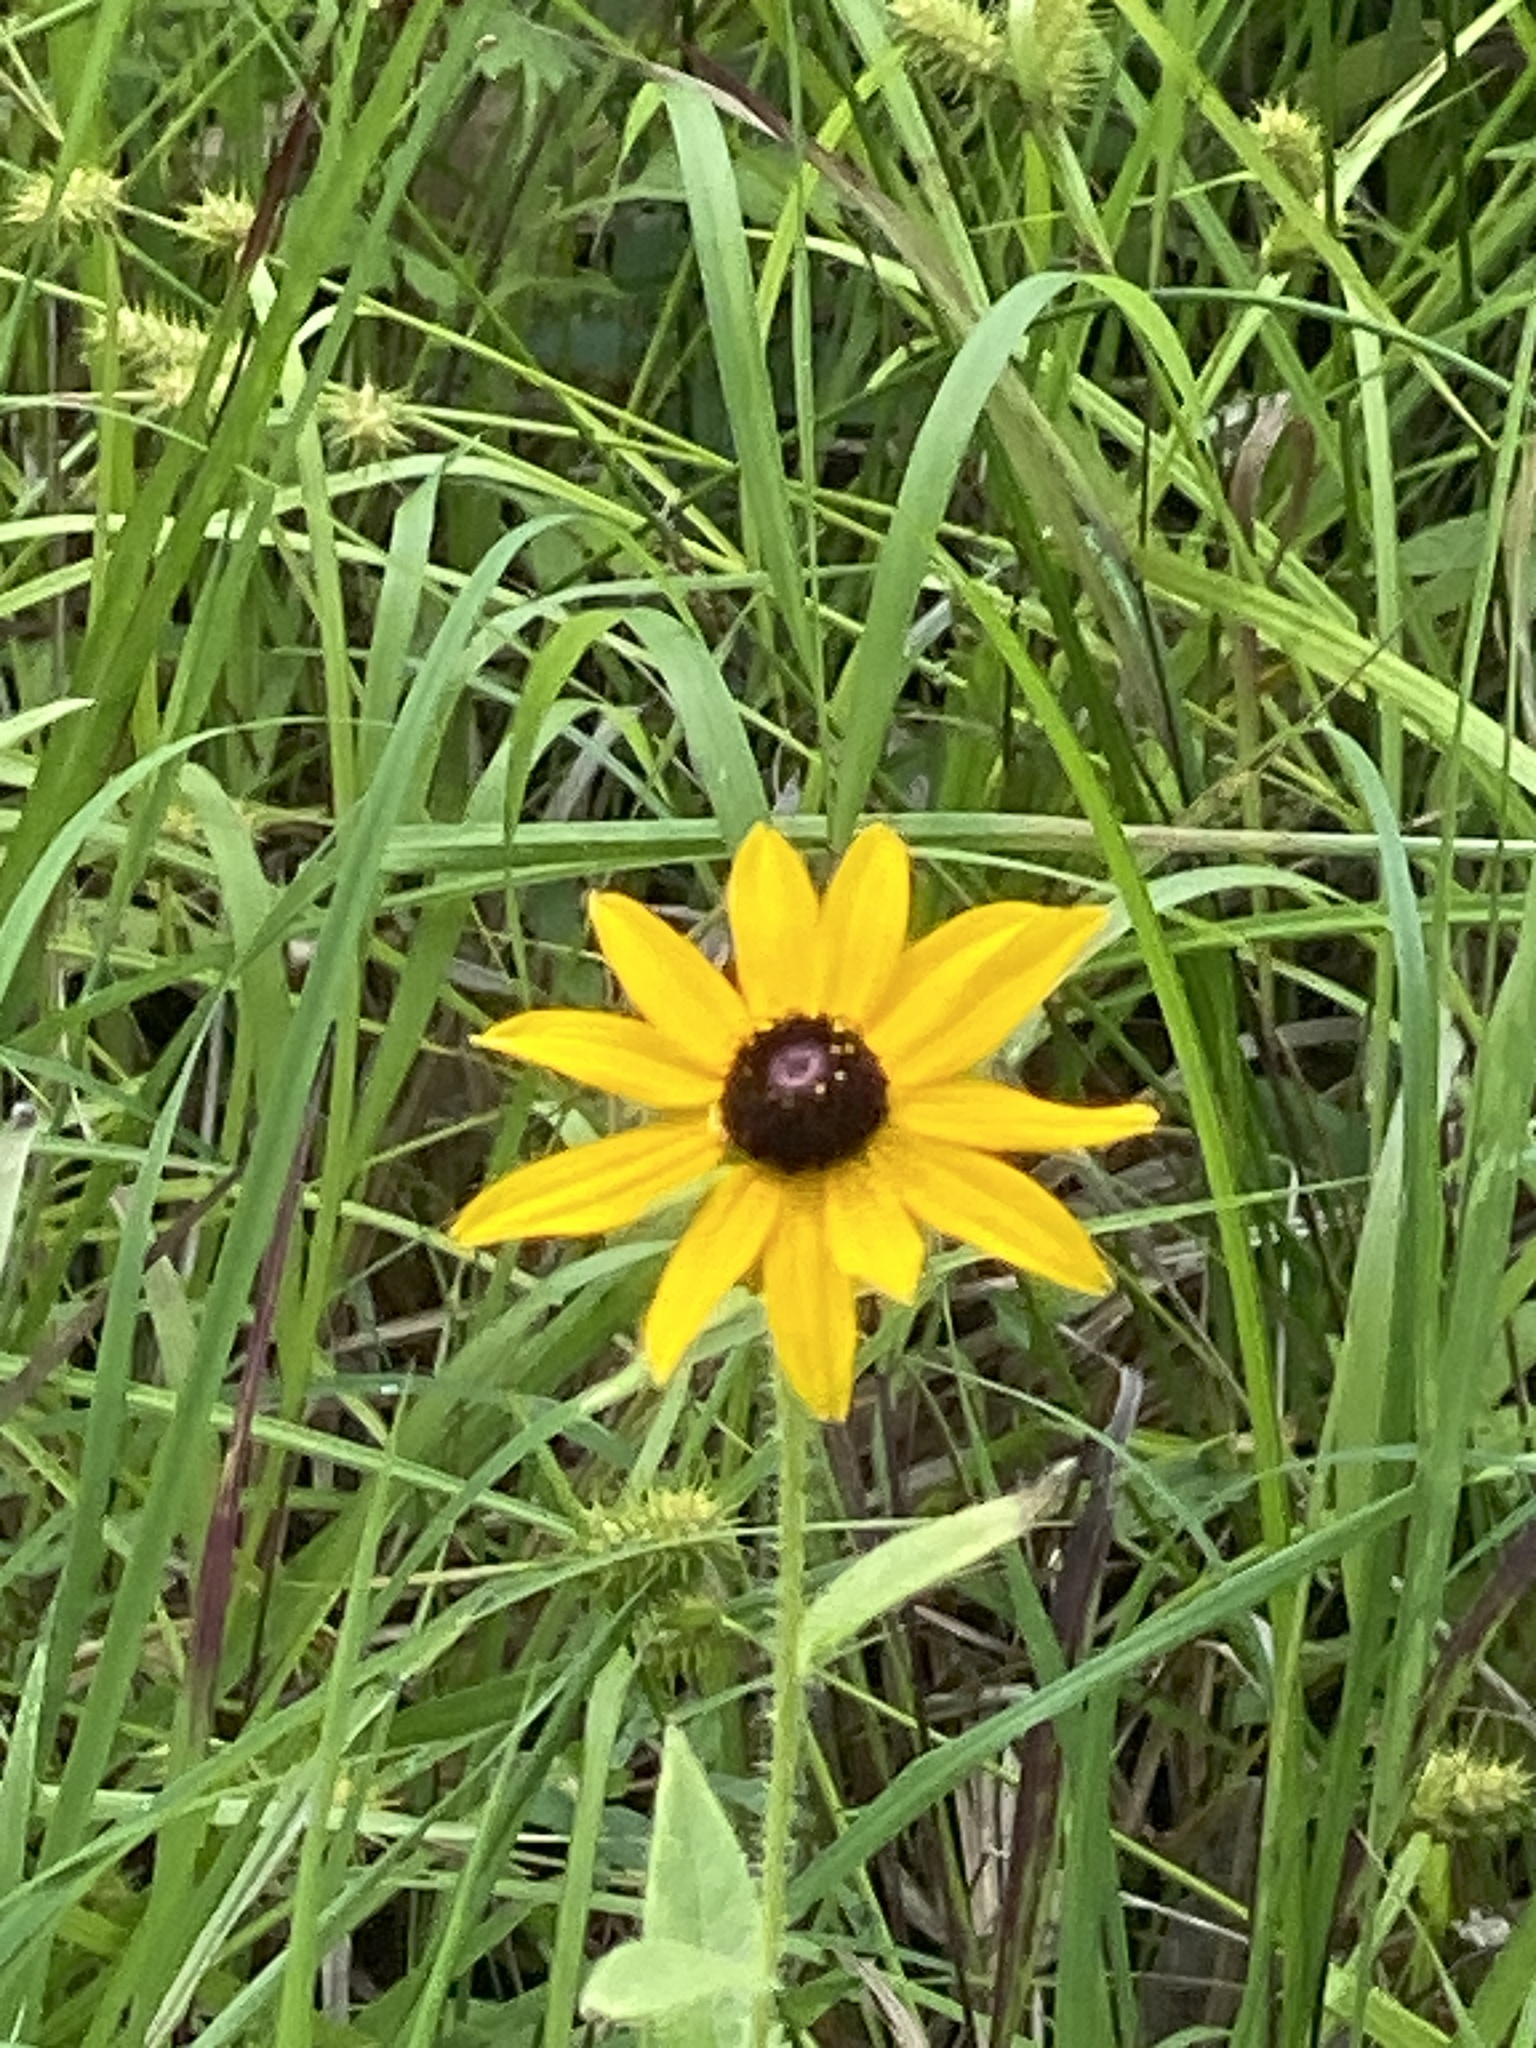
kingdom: Plantae
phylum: Tracheophyta
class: Magnoliopsida
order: Asterales
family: Asteraceae
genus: Rudbeckia
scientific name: Rudbeckia hirta
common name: Black-eyed-susan
